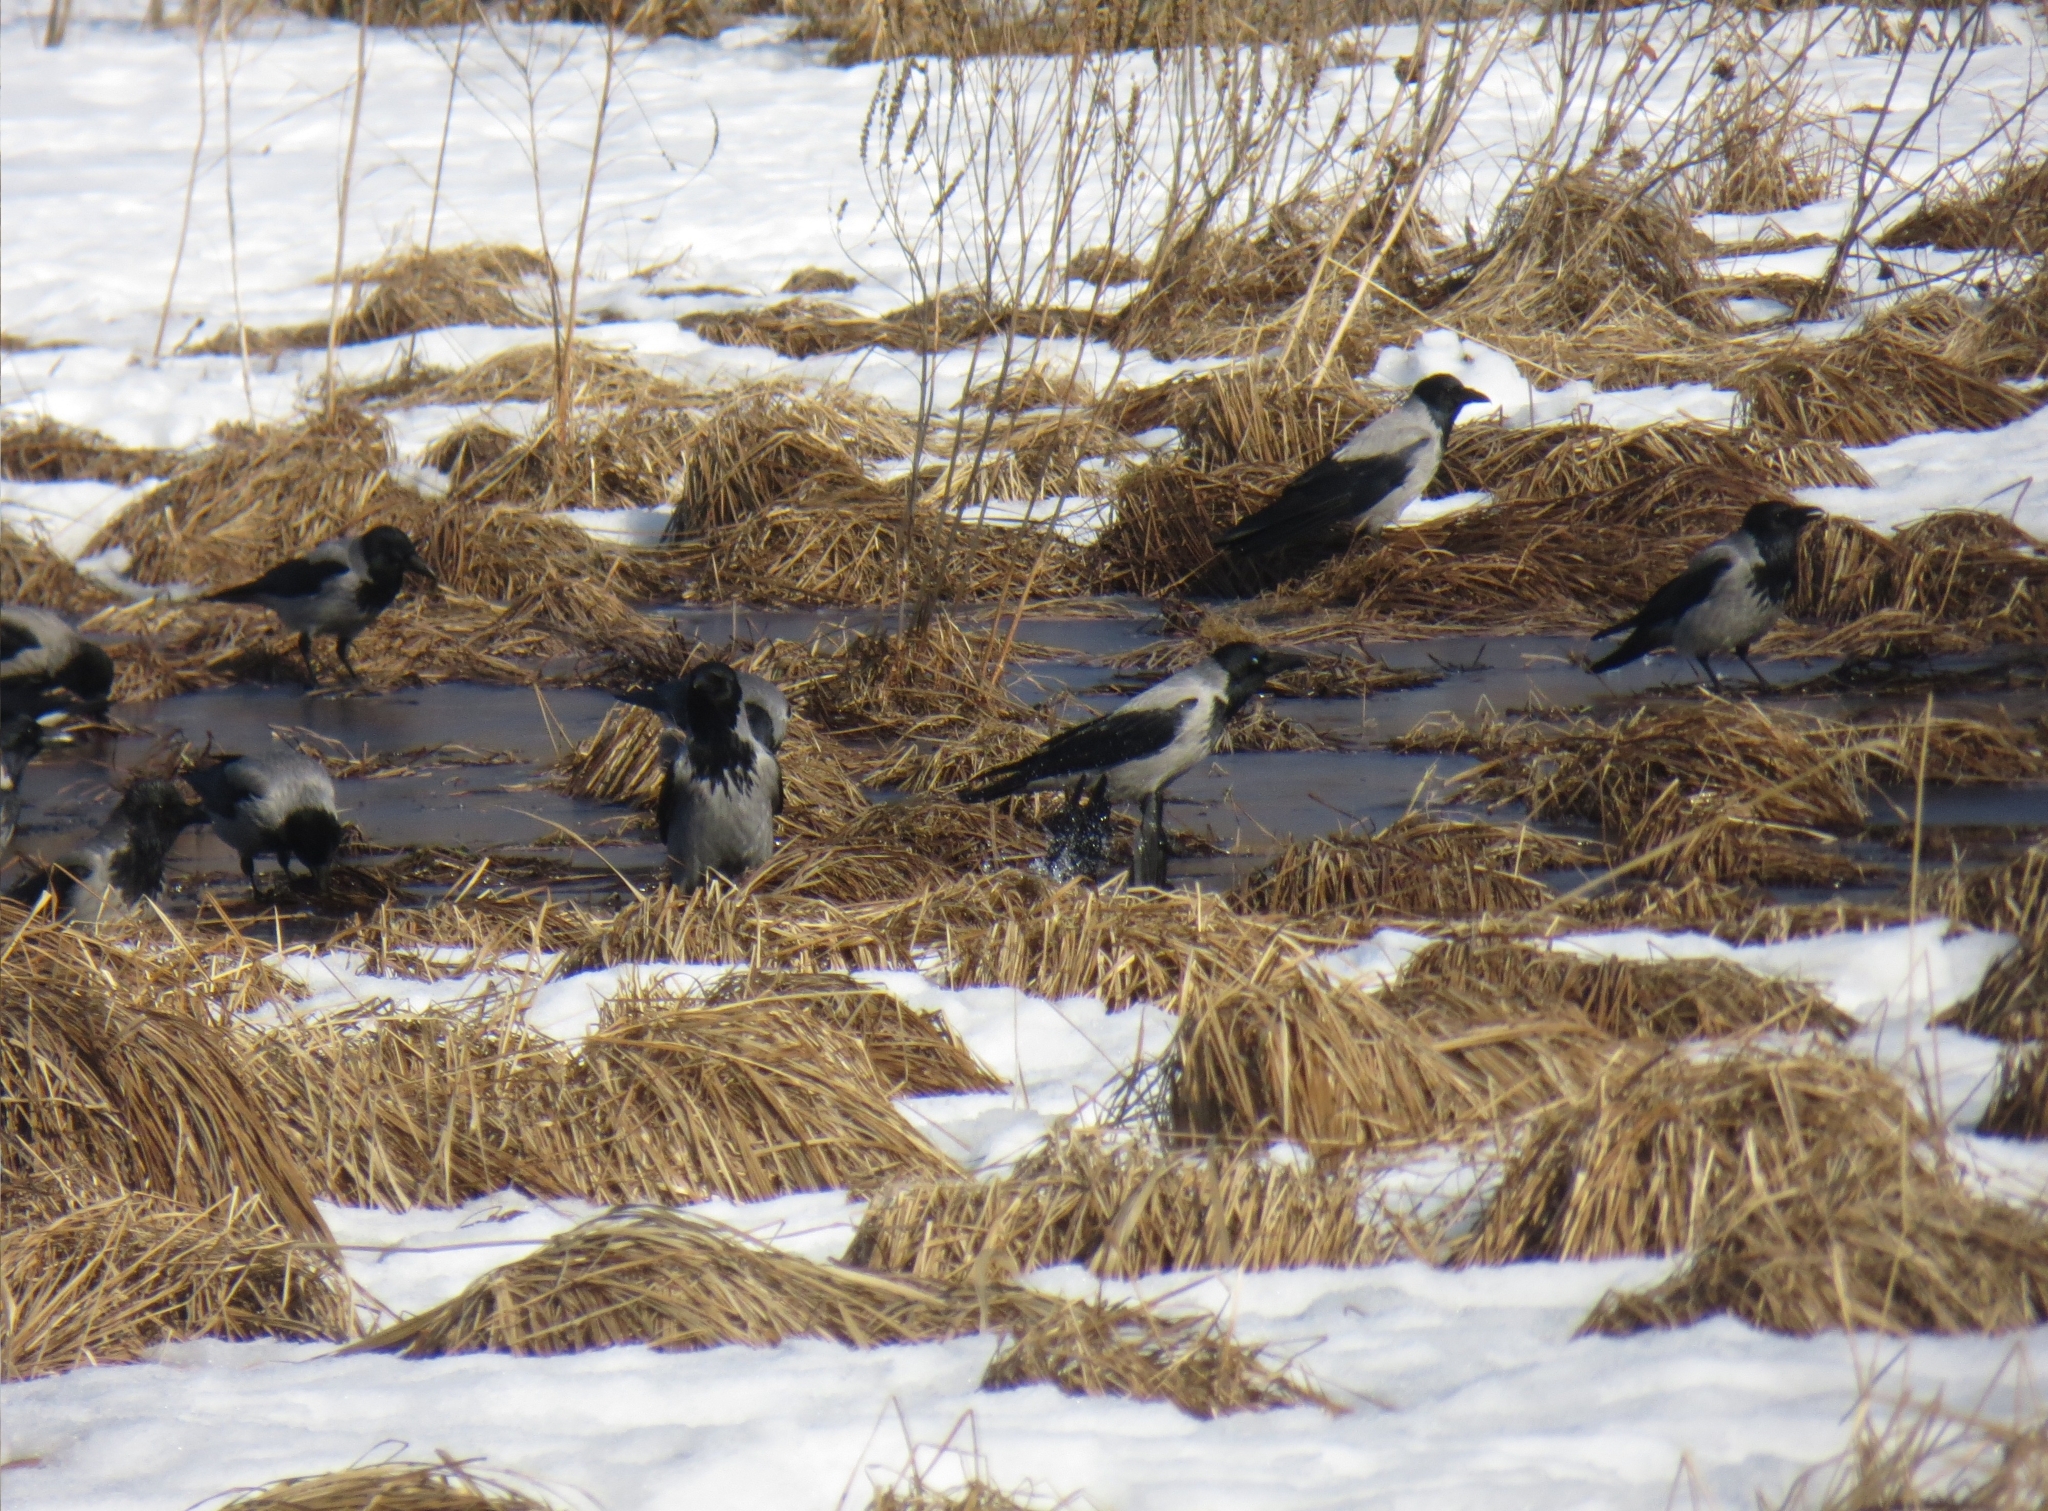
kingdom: Animalia
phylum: Chordata
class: Aves
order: Passeriformes
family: Corvidae
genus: Corvus
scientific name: Corvus cornix
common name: Hooded crow
